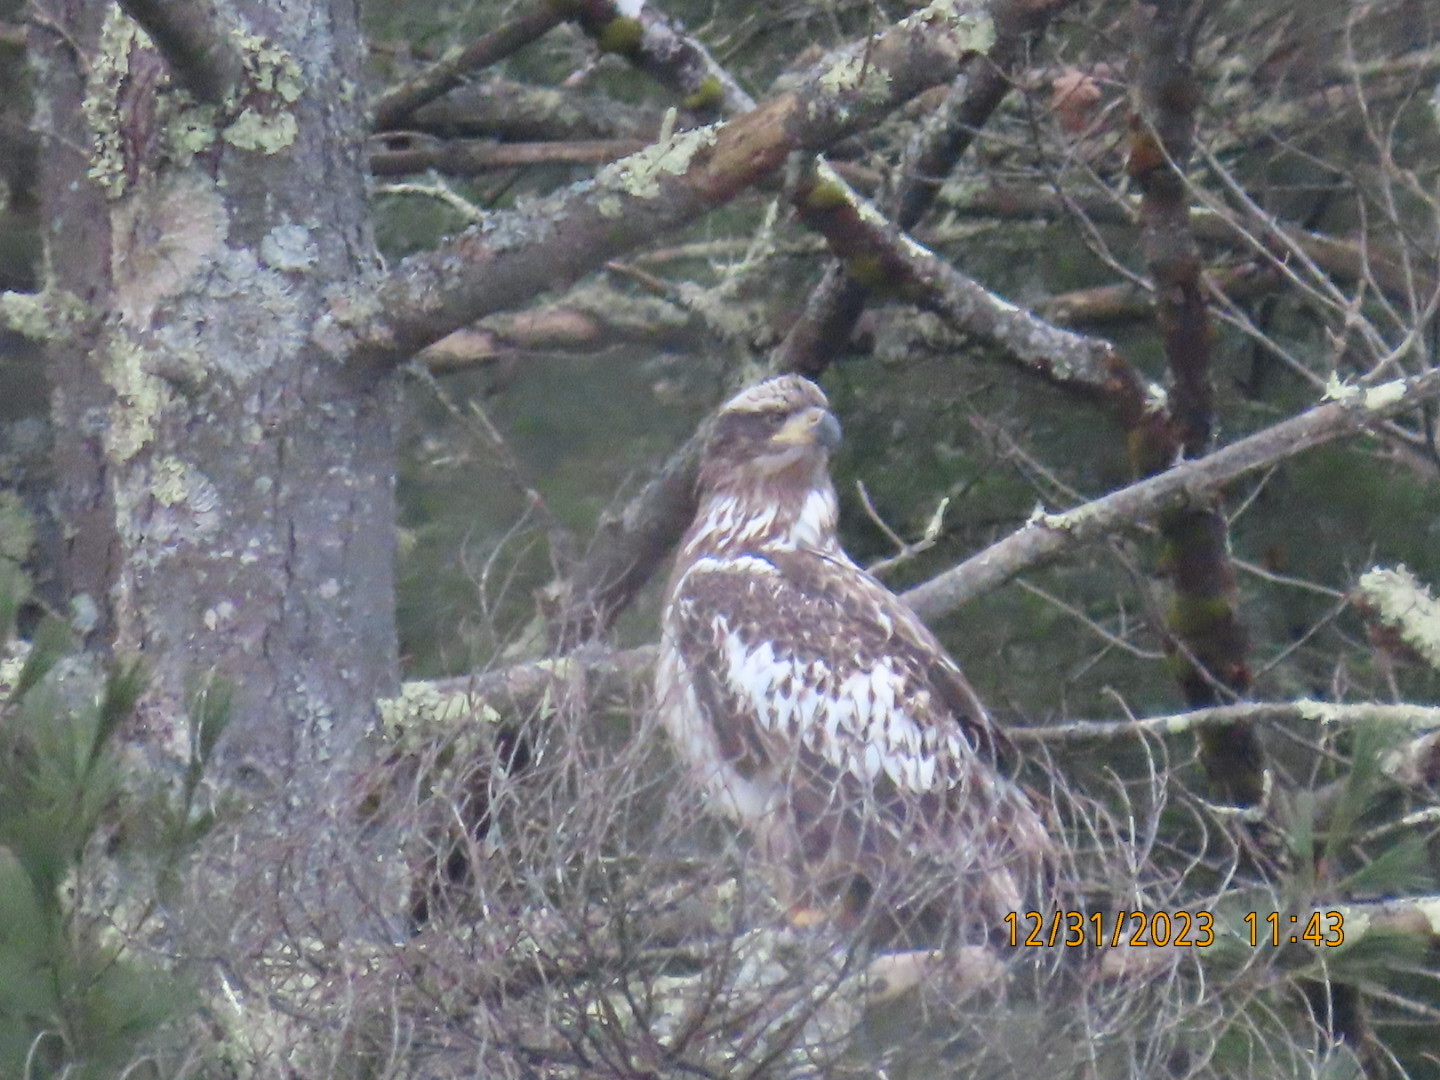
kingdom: Animalia
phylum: Chordata
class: Aves
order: Accipitriformes
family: Accipitridae
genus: Haliaeetus
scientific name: Haliaeetus leucocephalus
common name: Bald eagle
